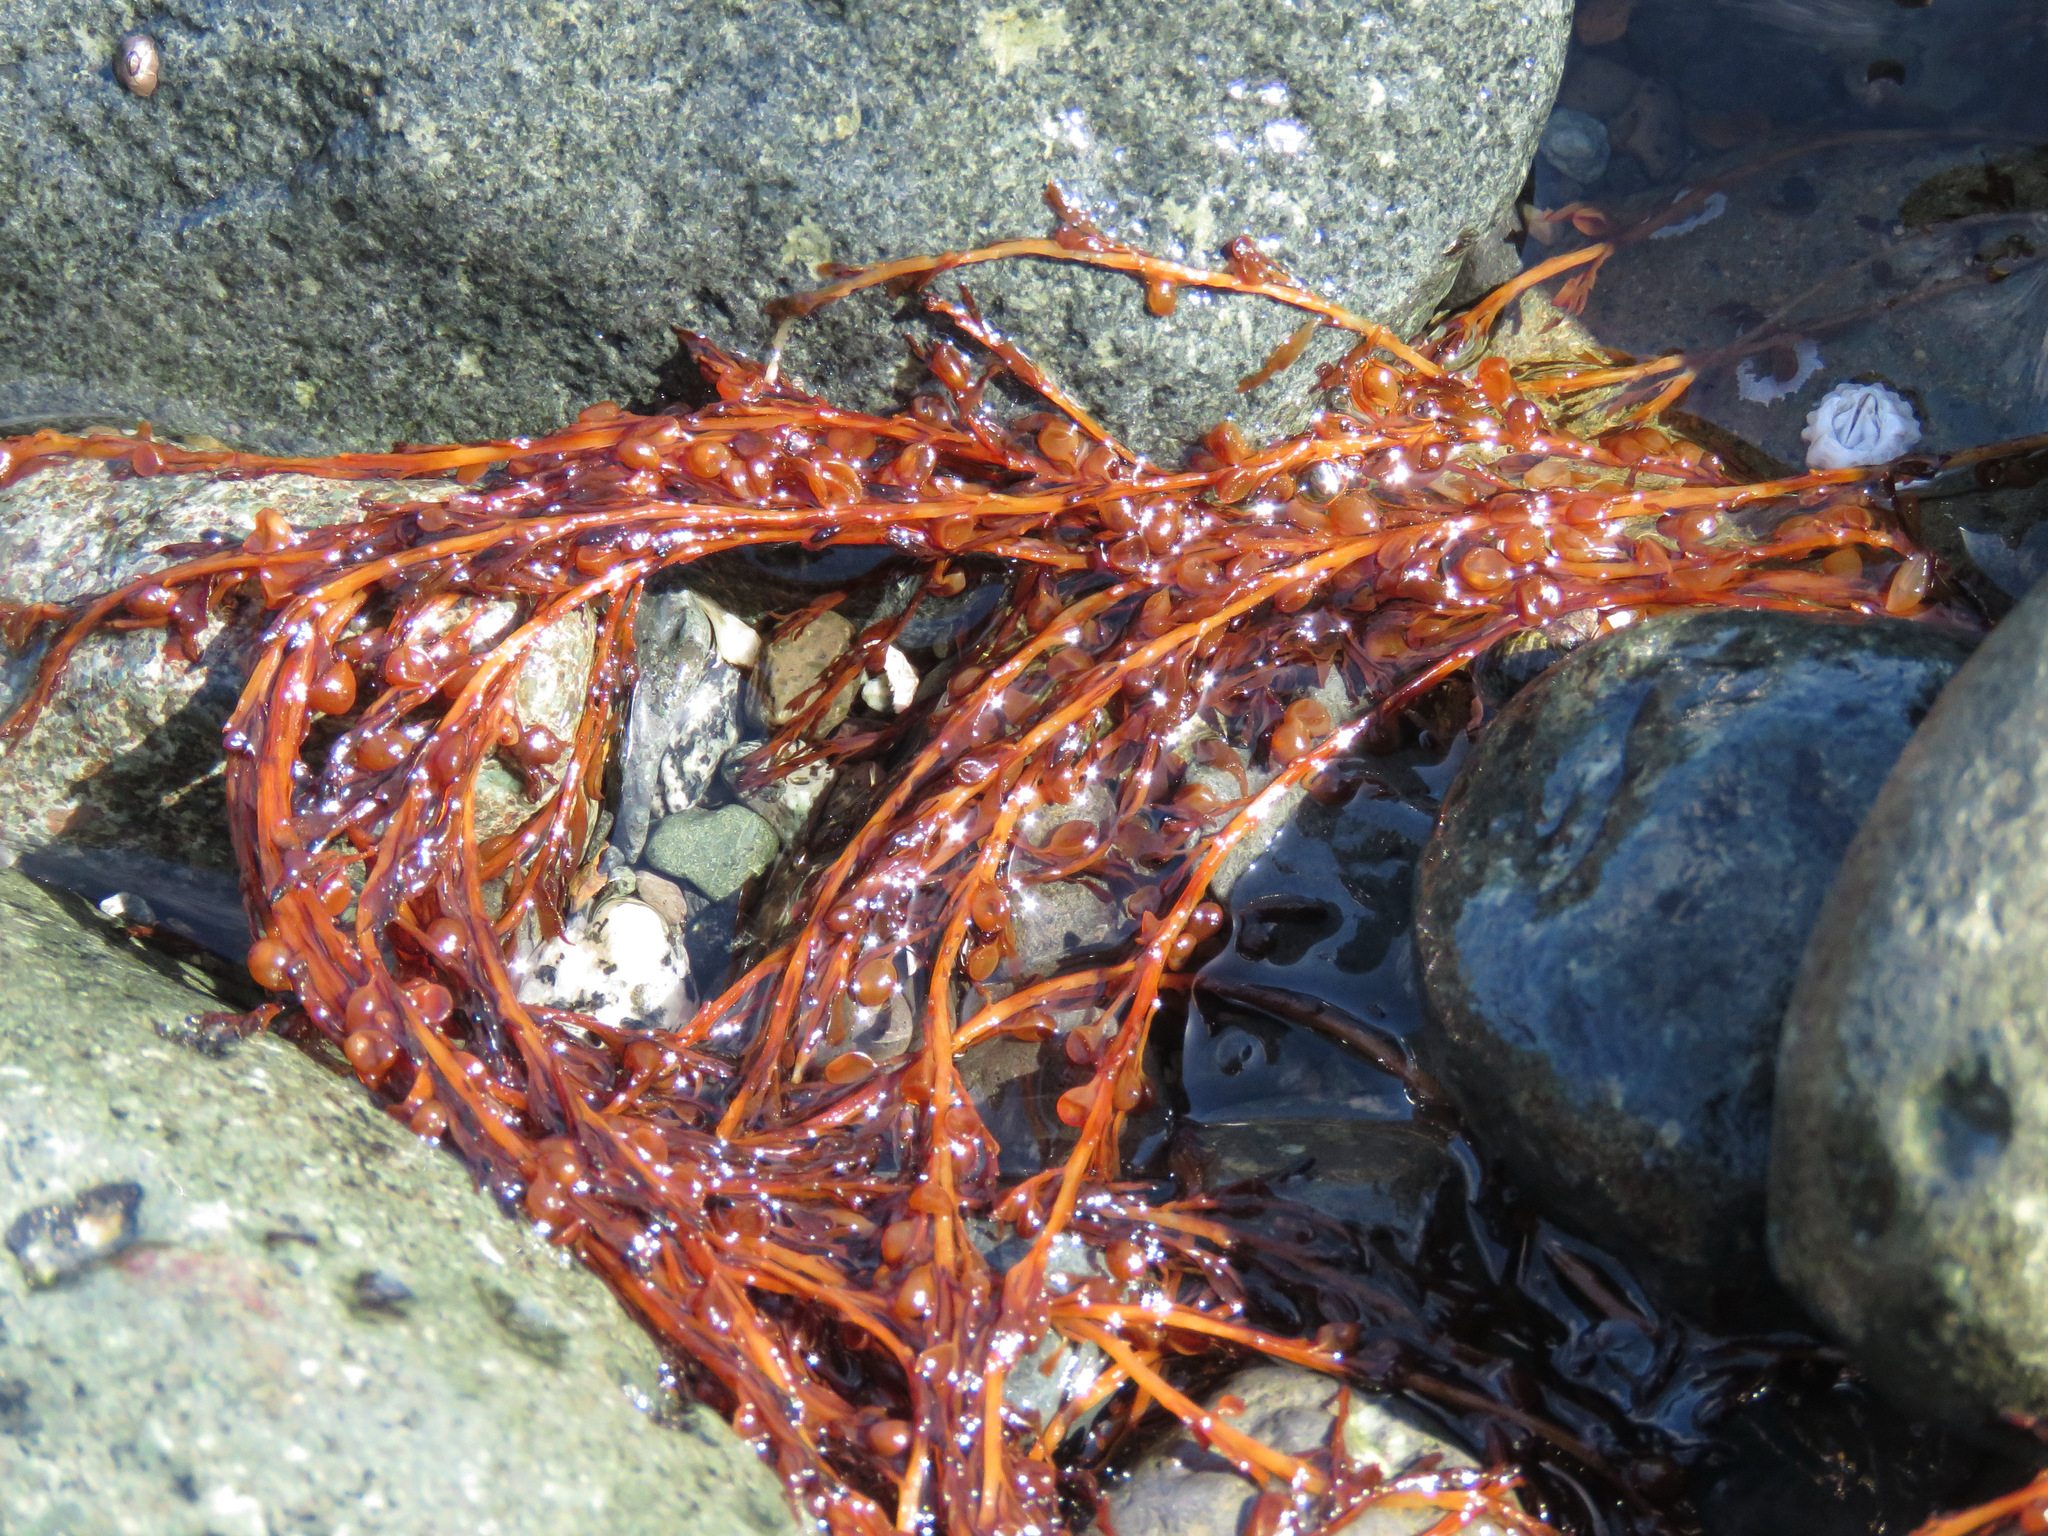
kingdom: Chromista
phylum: Ochrophyta
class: Phaeophyceae
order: Fucales
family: Sargassaceae
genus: Sargassum
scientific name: Sargassum muticum
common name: Japweed
